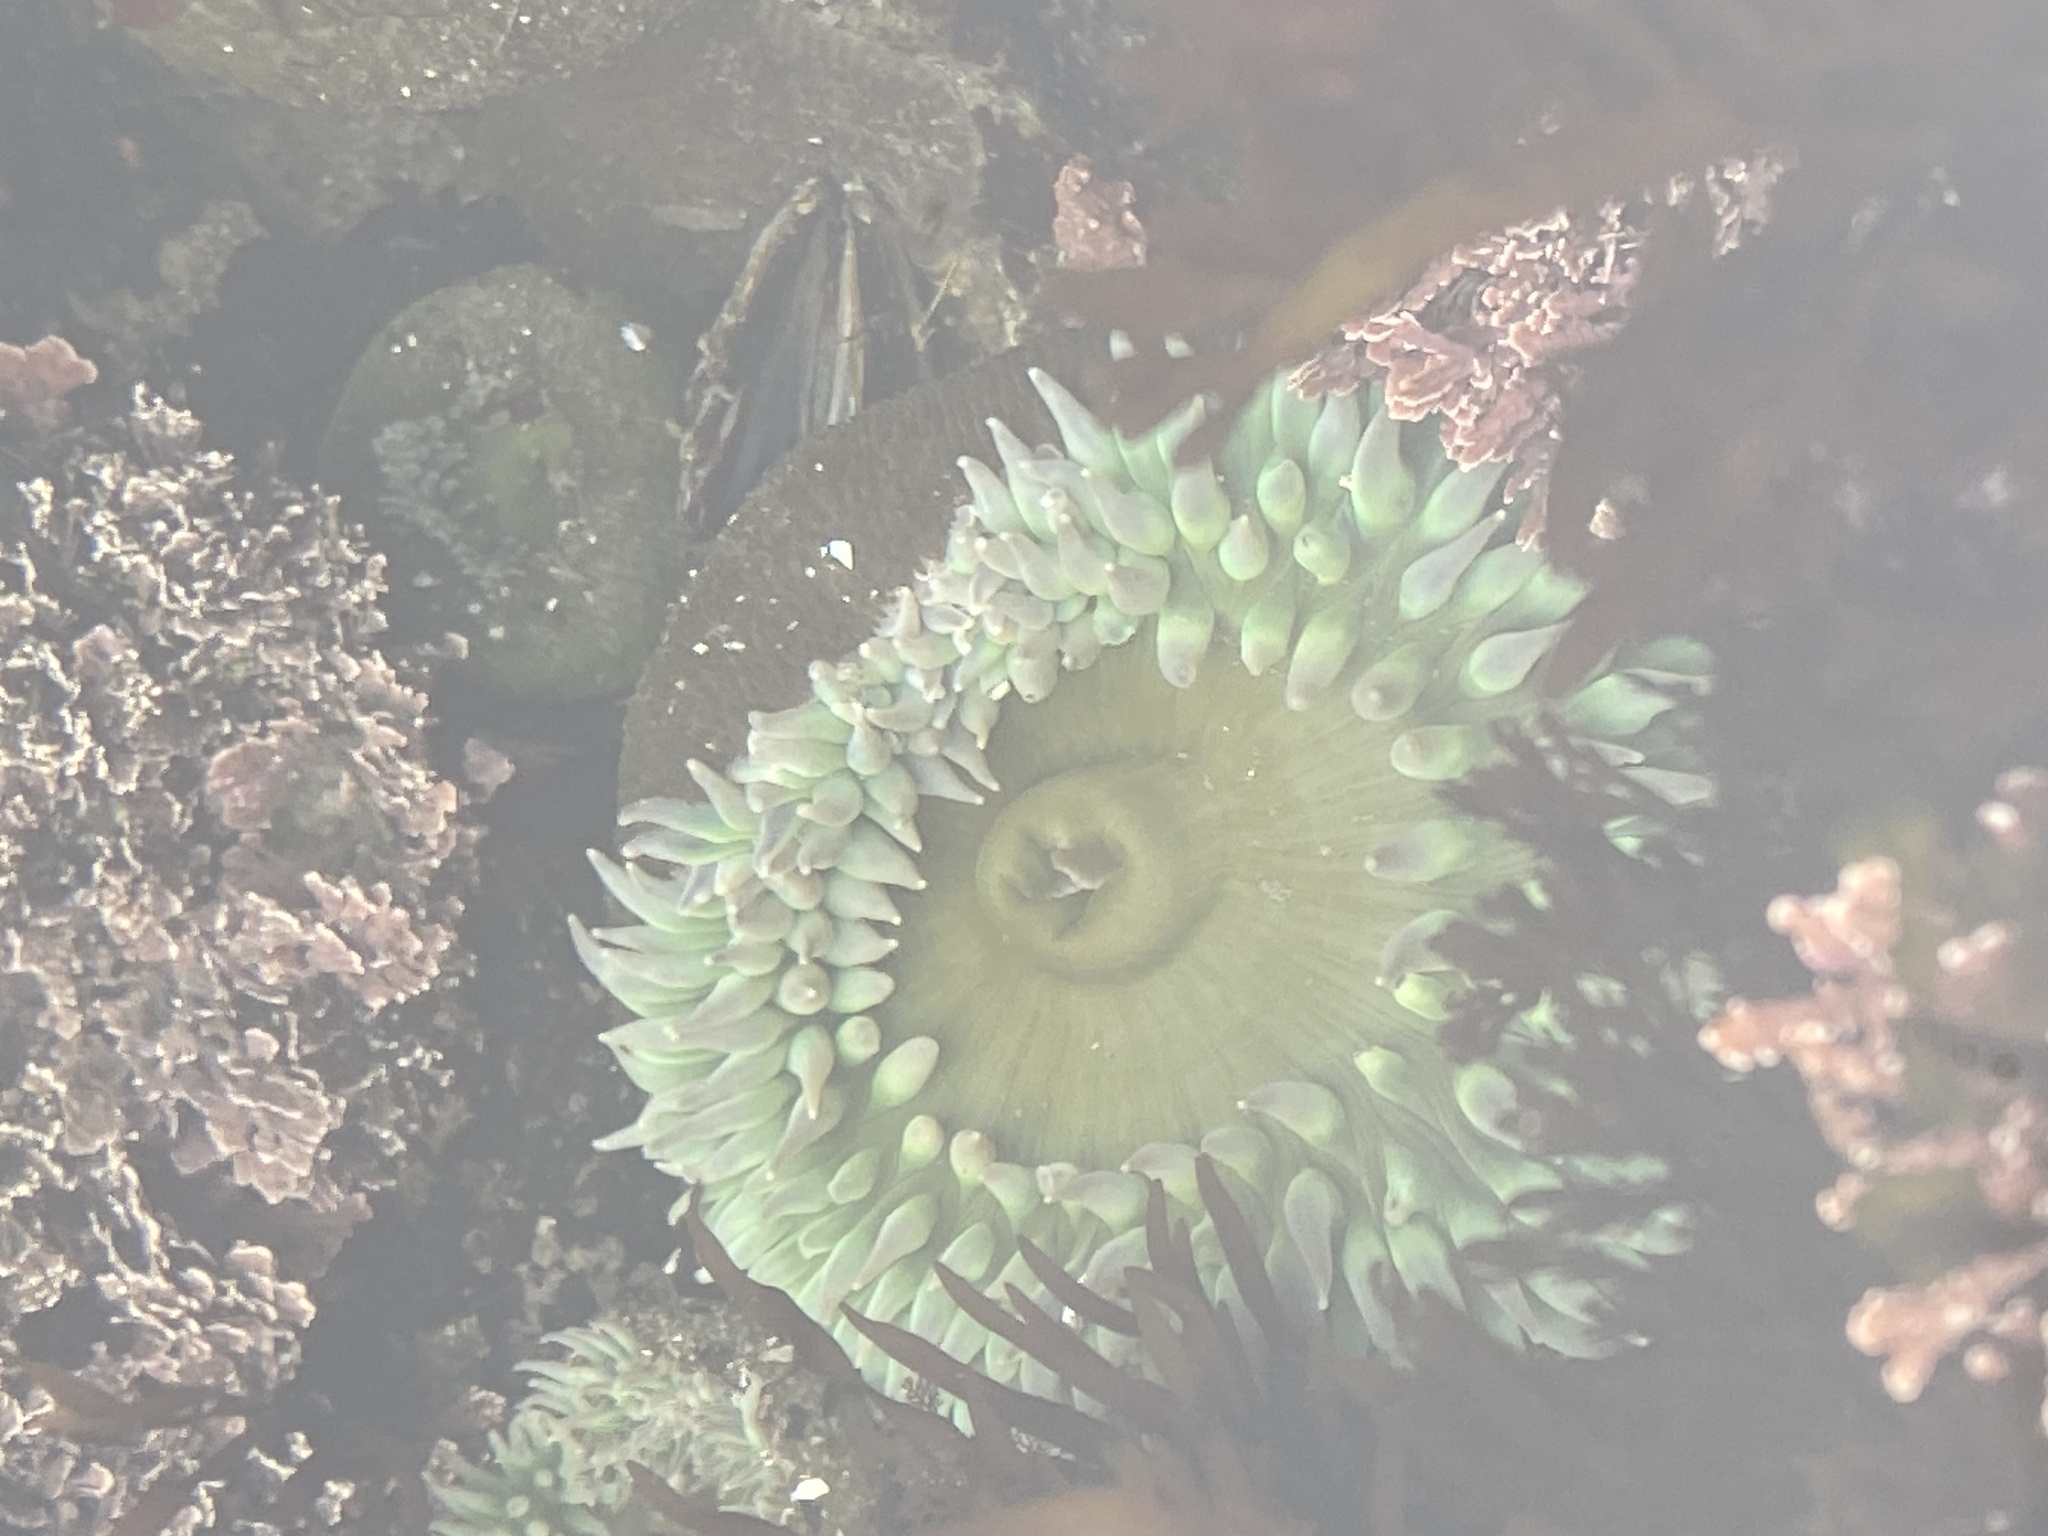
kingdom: Animalia
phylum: Cnidaria
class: Anthozoa
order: Actiniaria
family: Actiniidae
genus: Anthopleura
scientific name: Anthopleura xanthogrammica
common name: Giant green anemone
